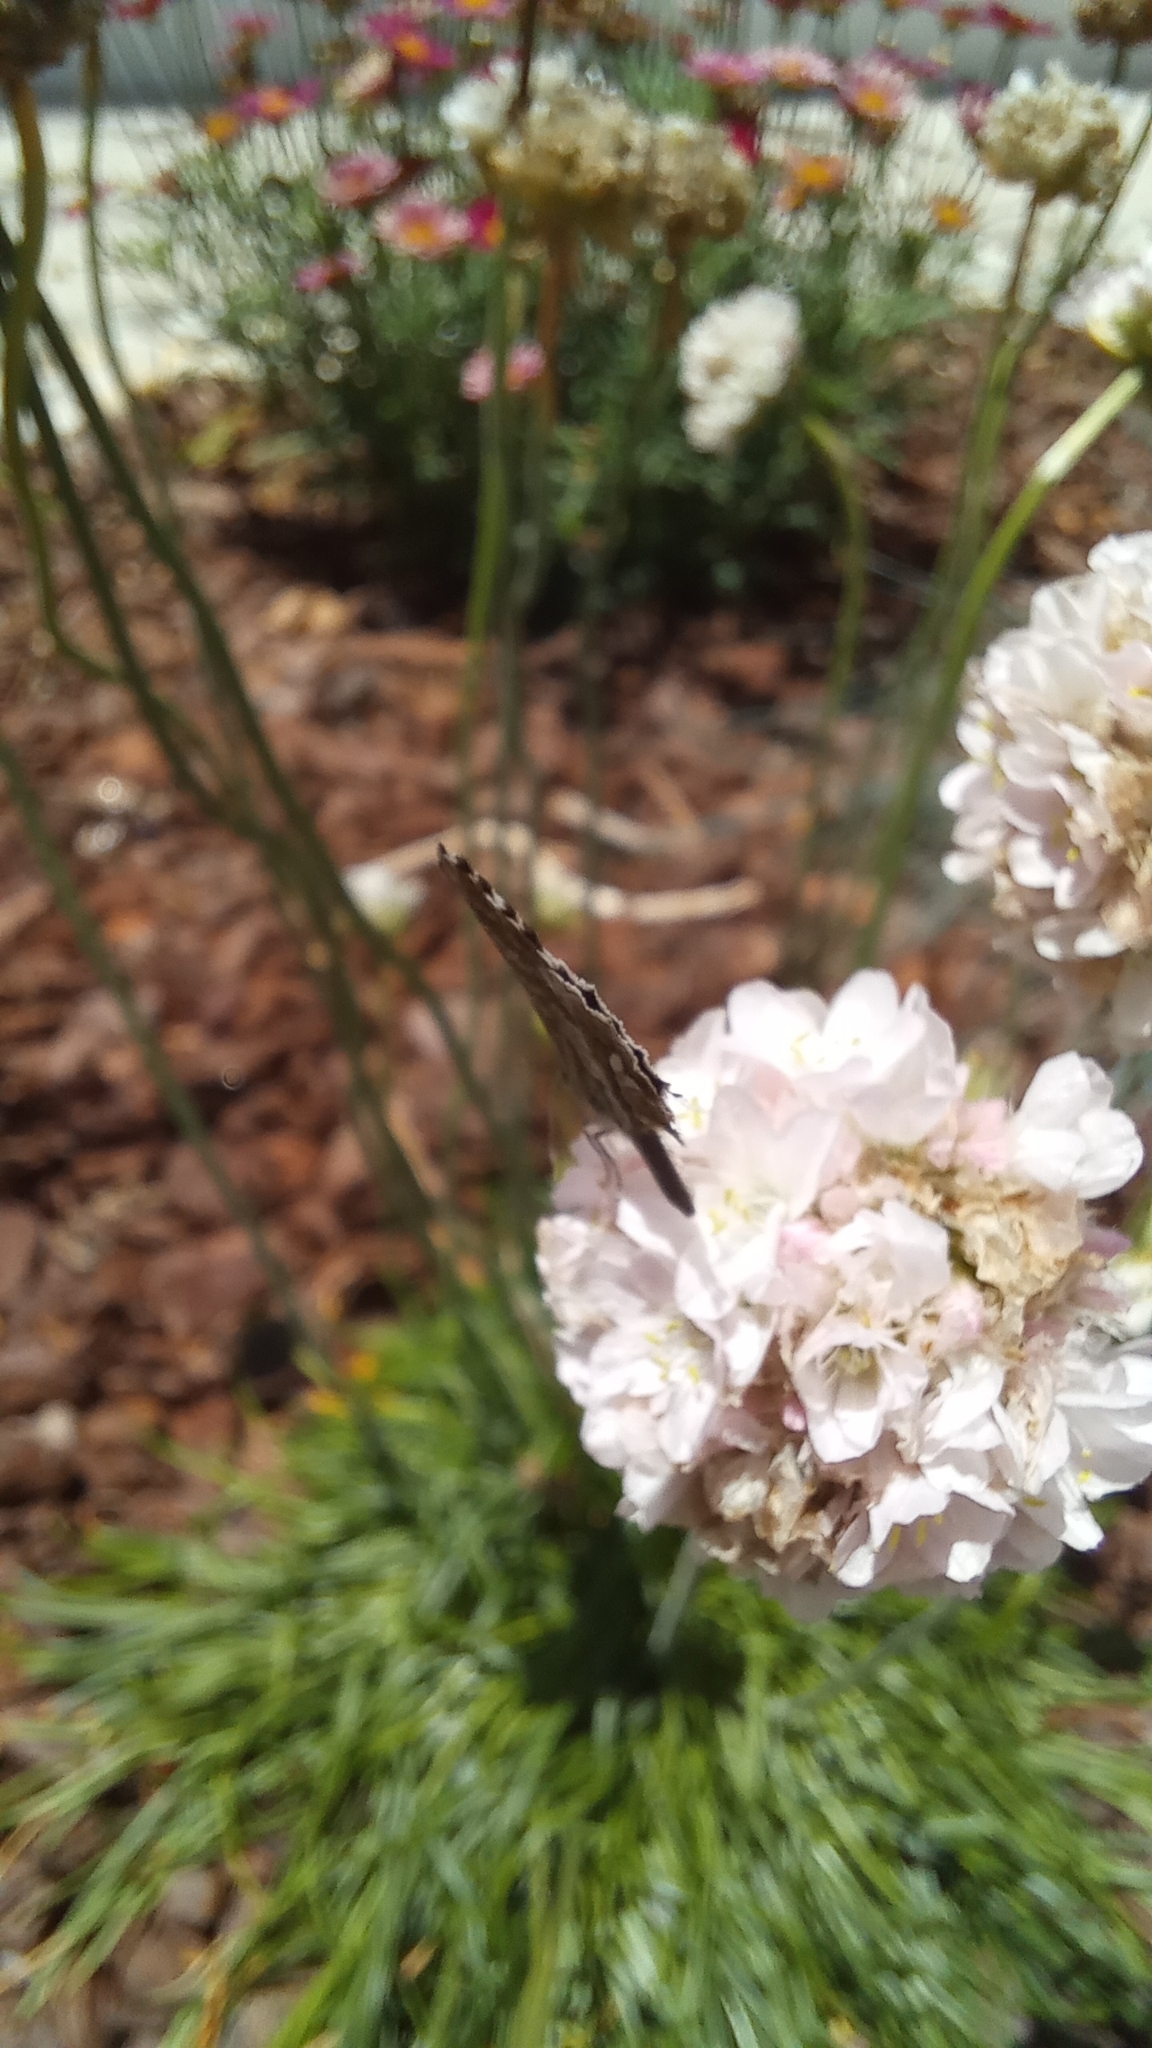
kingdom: Animalia
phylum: Arthropoda
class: Insecta
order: Lepidoptera
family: Lycaenidae
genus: Cacyreus
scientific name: Cacyreus marshalli
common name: Geranium bronze
